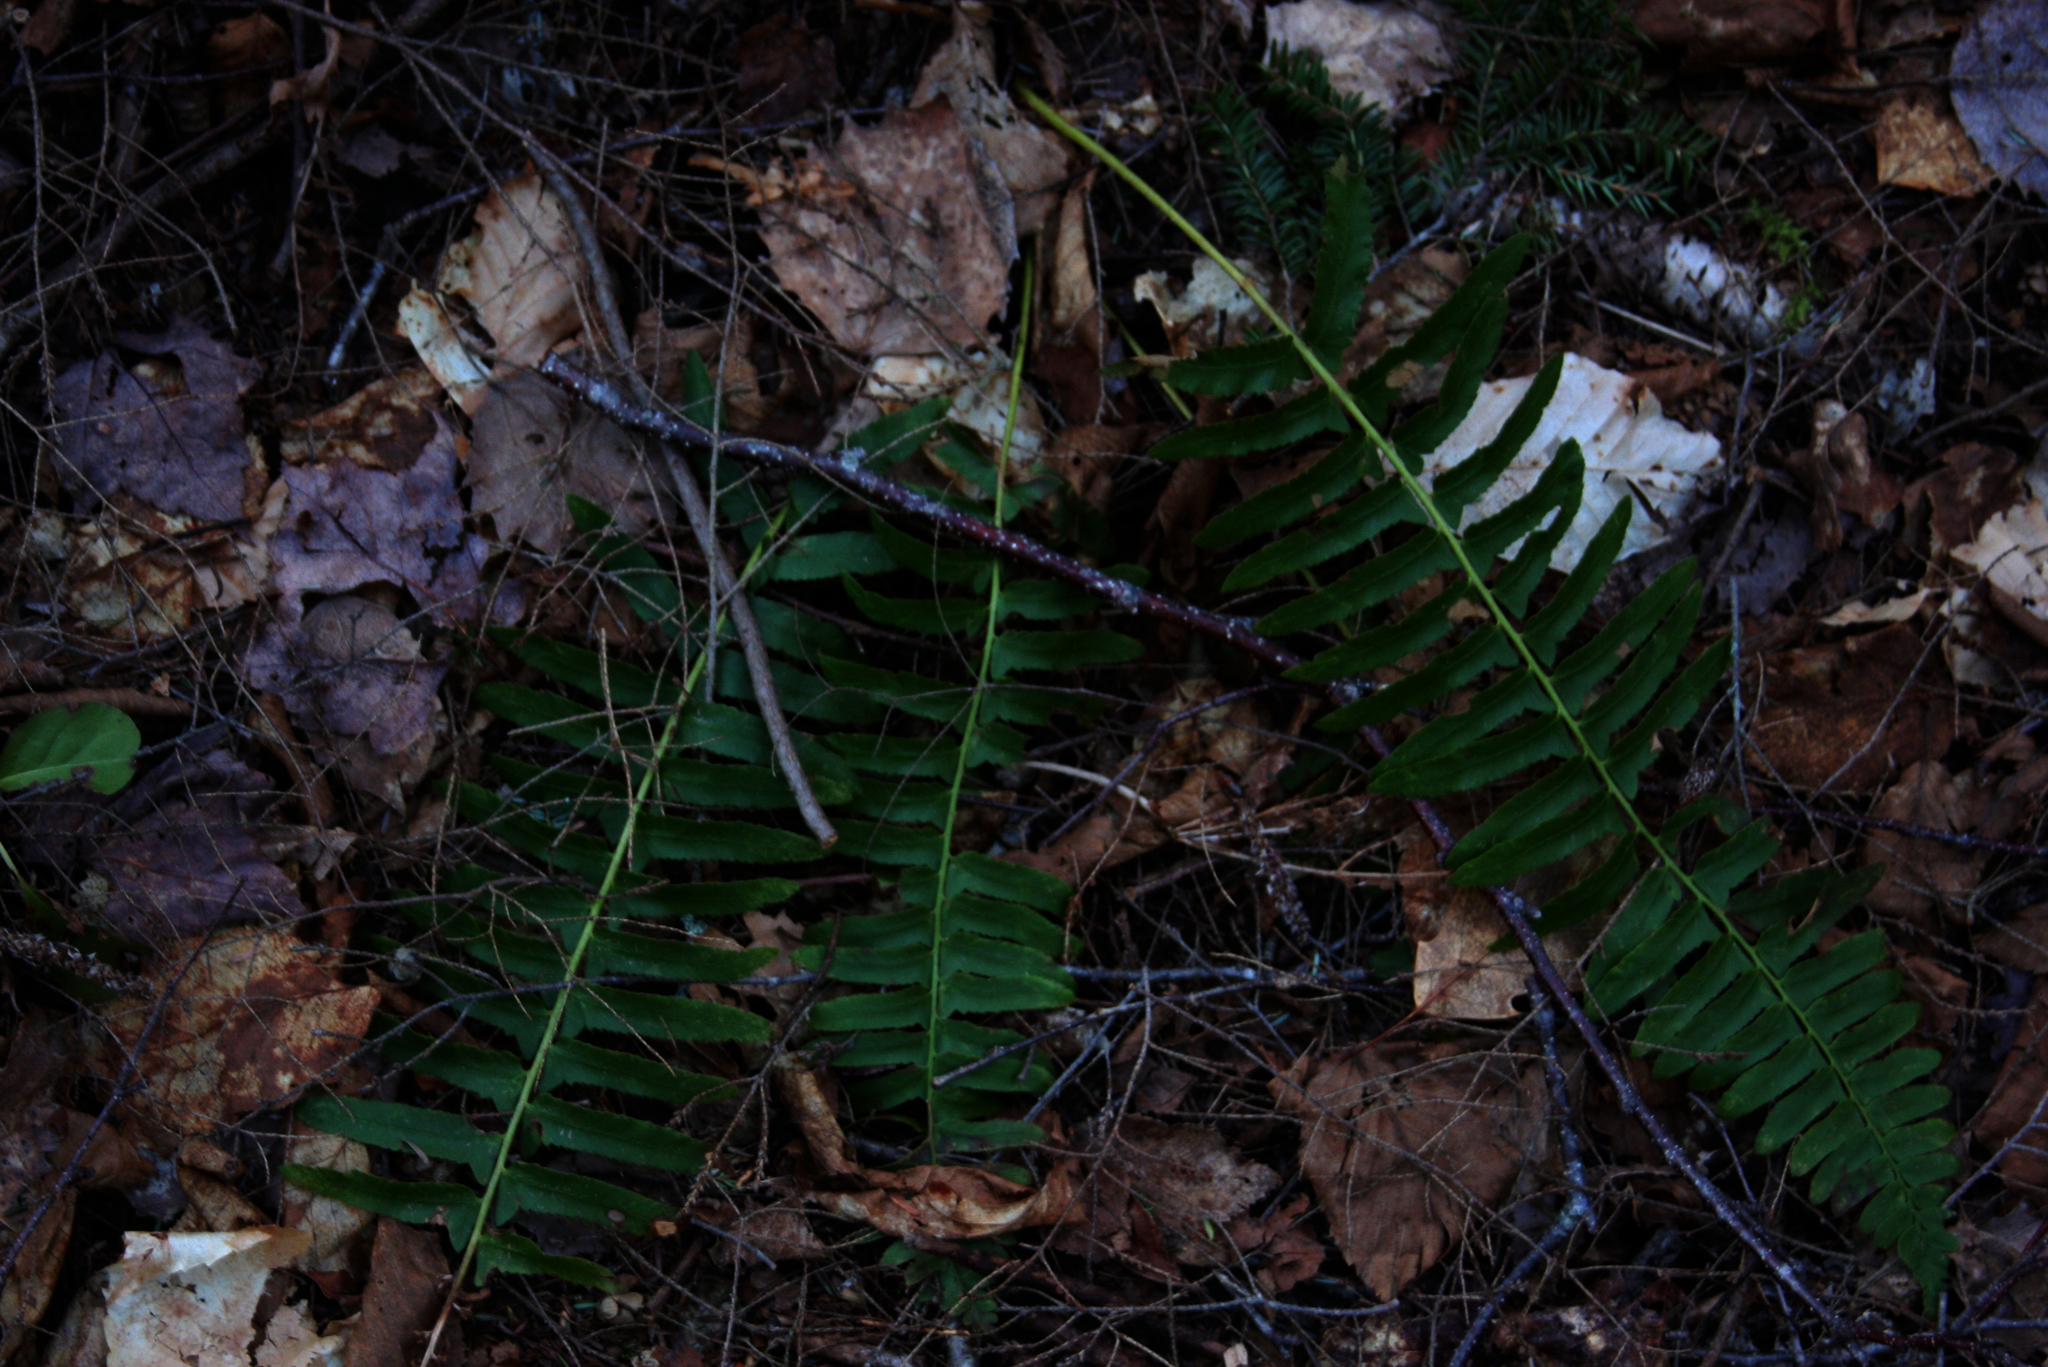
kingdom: Plantae
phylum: Tracheophyta
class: Polypodiopsida
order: Polypodiales
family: Dryopteridaceae
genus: Polystichum
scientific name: Polystichum acrostichoides
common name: Christmas fern
